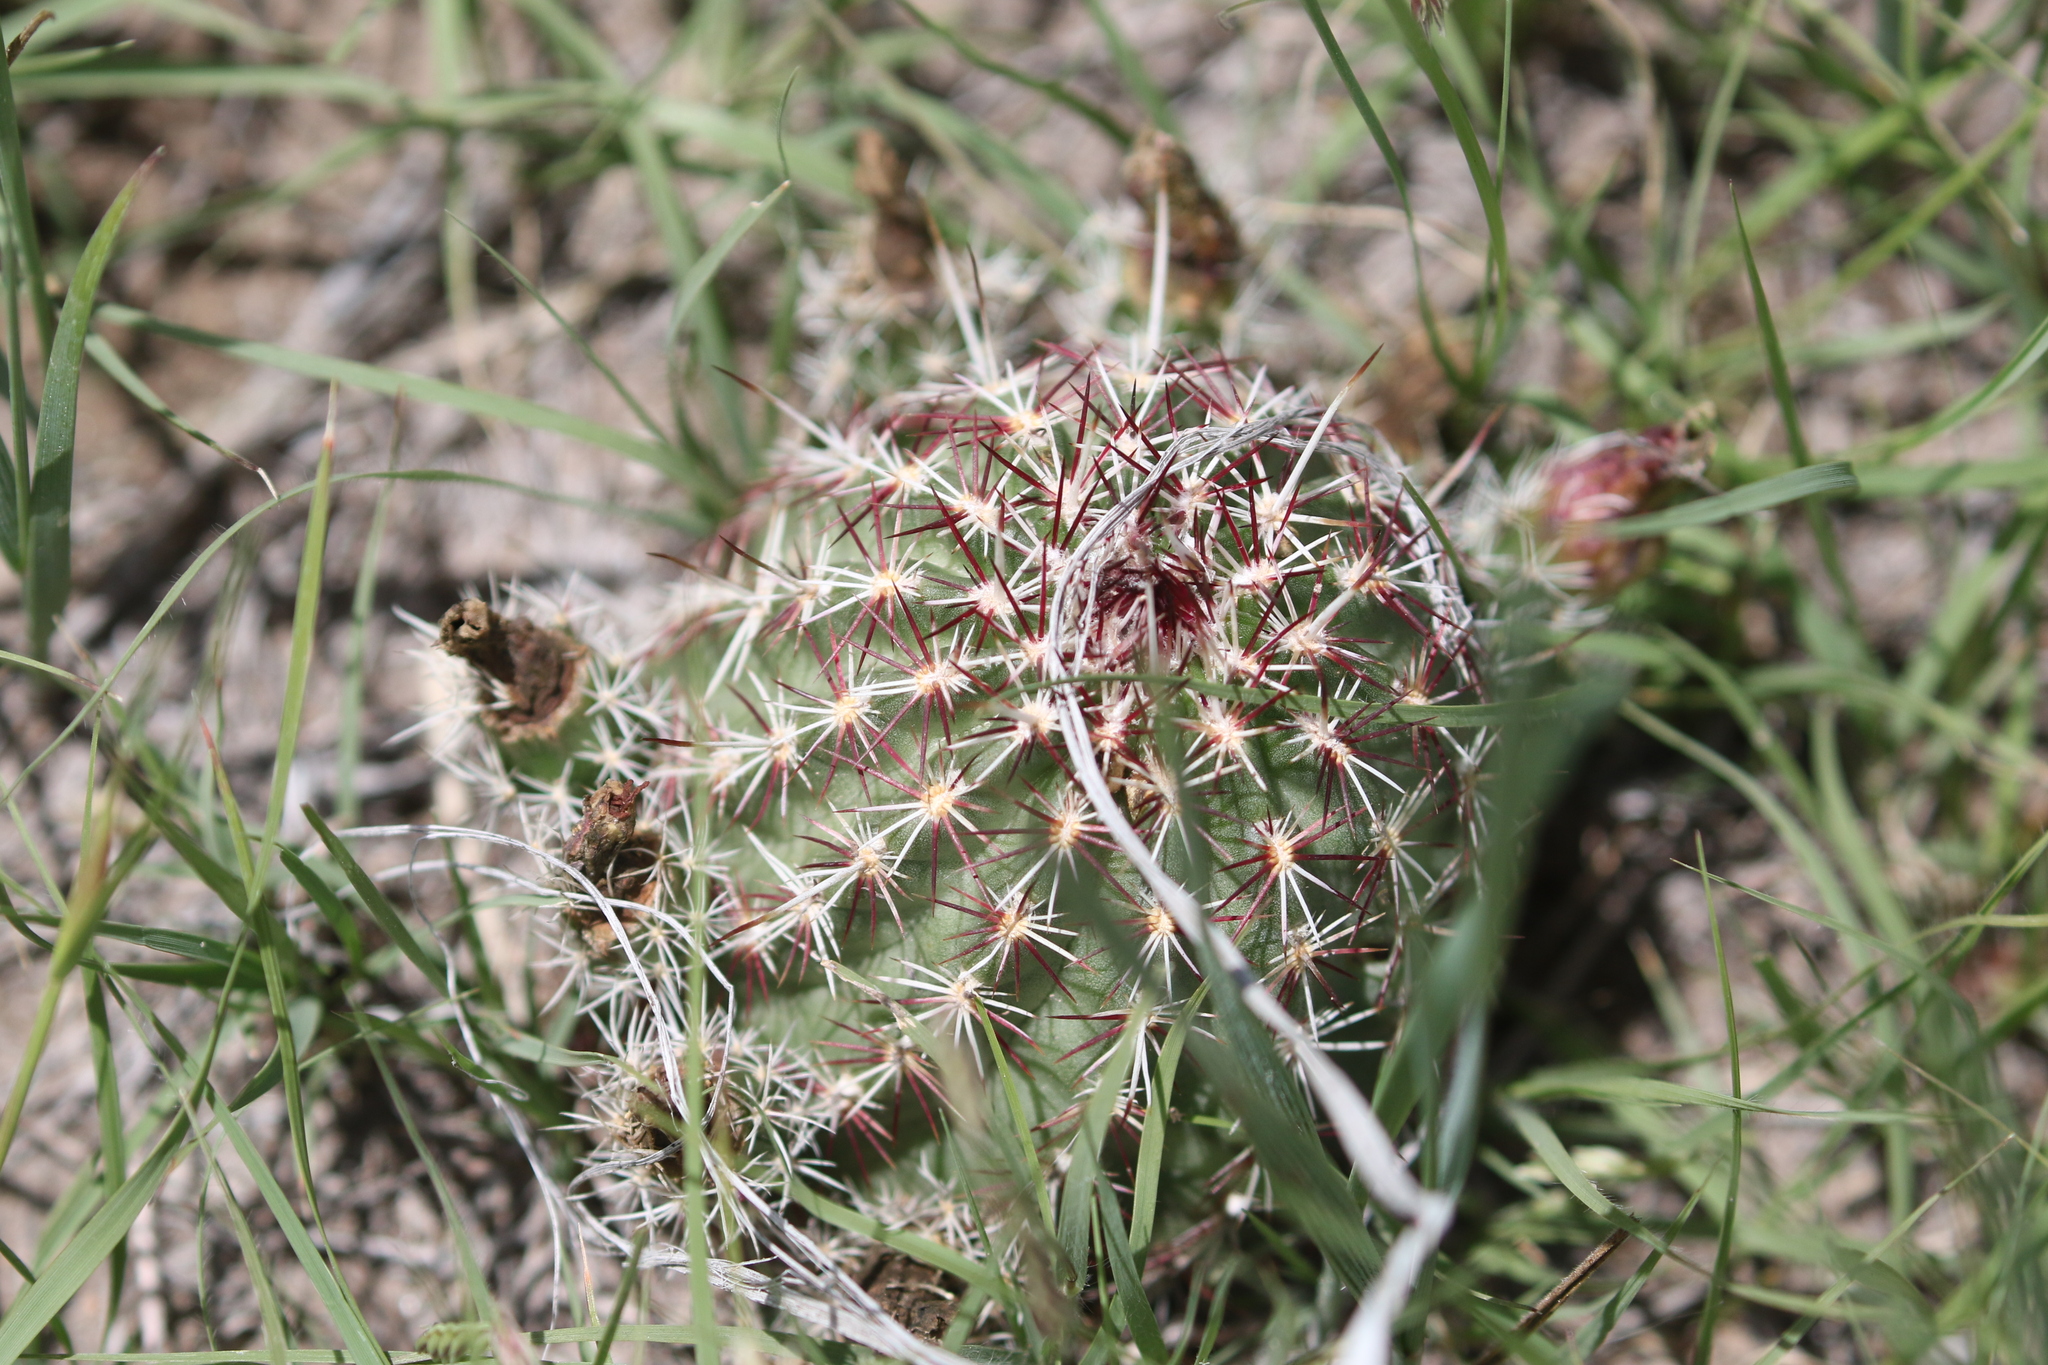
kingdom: Plantae
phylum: Tracheophyta
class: Magnoliopsida
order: Caryophyllales
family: Cactaceae
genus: Echinocereus
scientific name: Echinocereus viridiflorus
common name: Nylon hedgehog cactus
